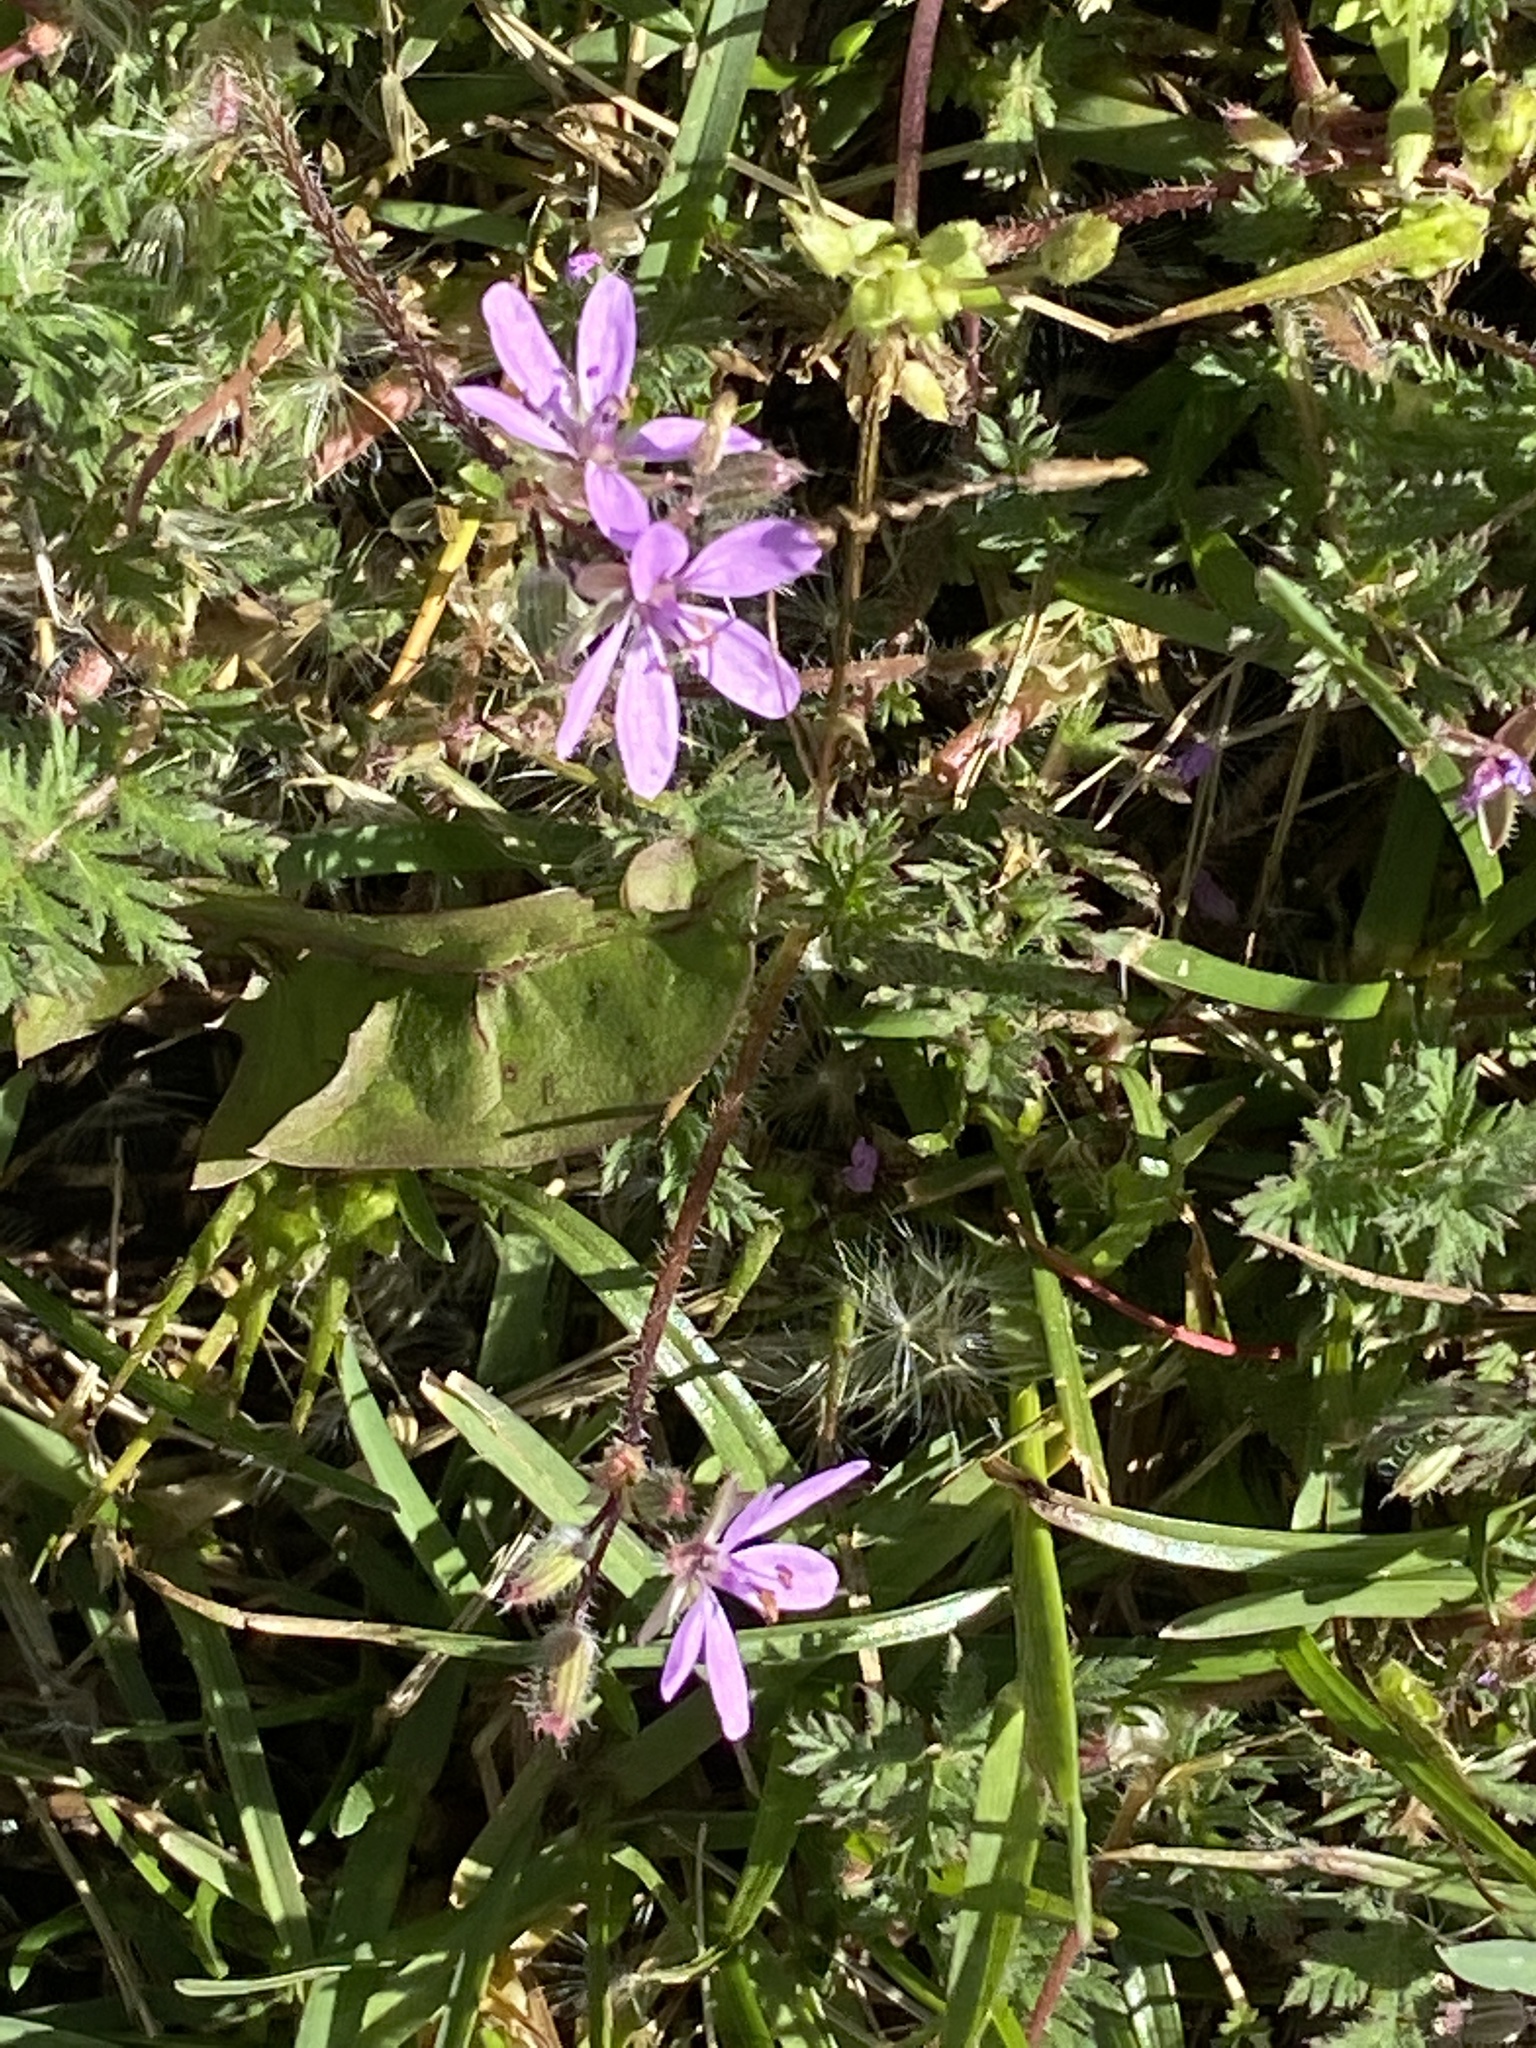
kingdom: Plantae
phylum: Tracheophyta
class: Magnoliopsida
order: Geraniales
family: Geraniaceae
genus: Erodium
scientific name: Erodium cicutarium
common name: Common stork's-bill
